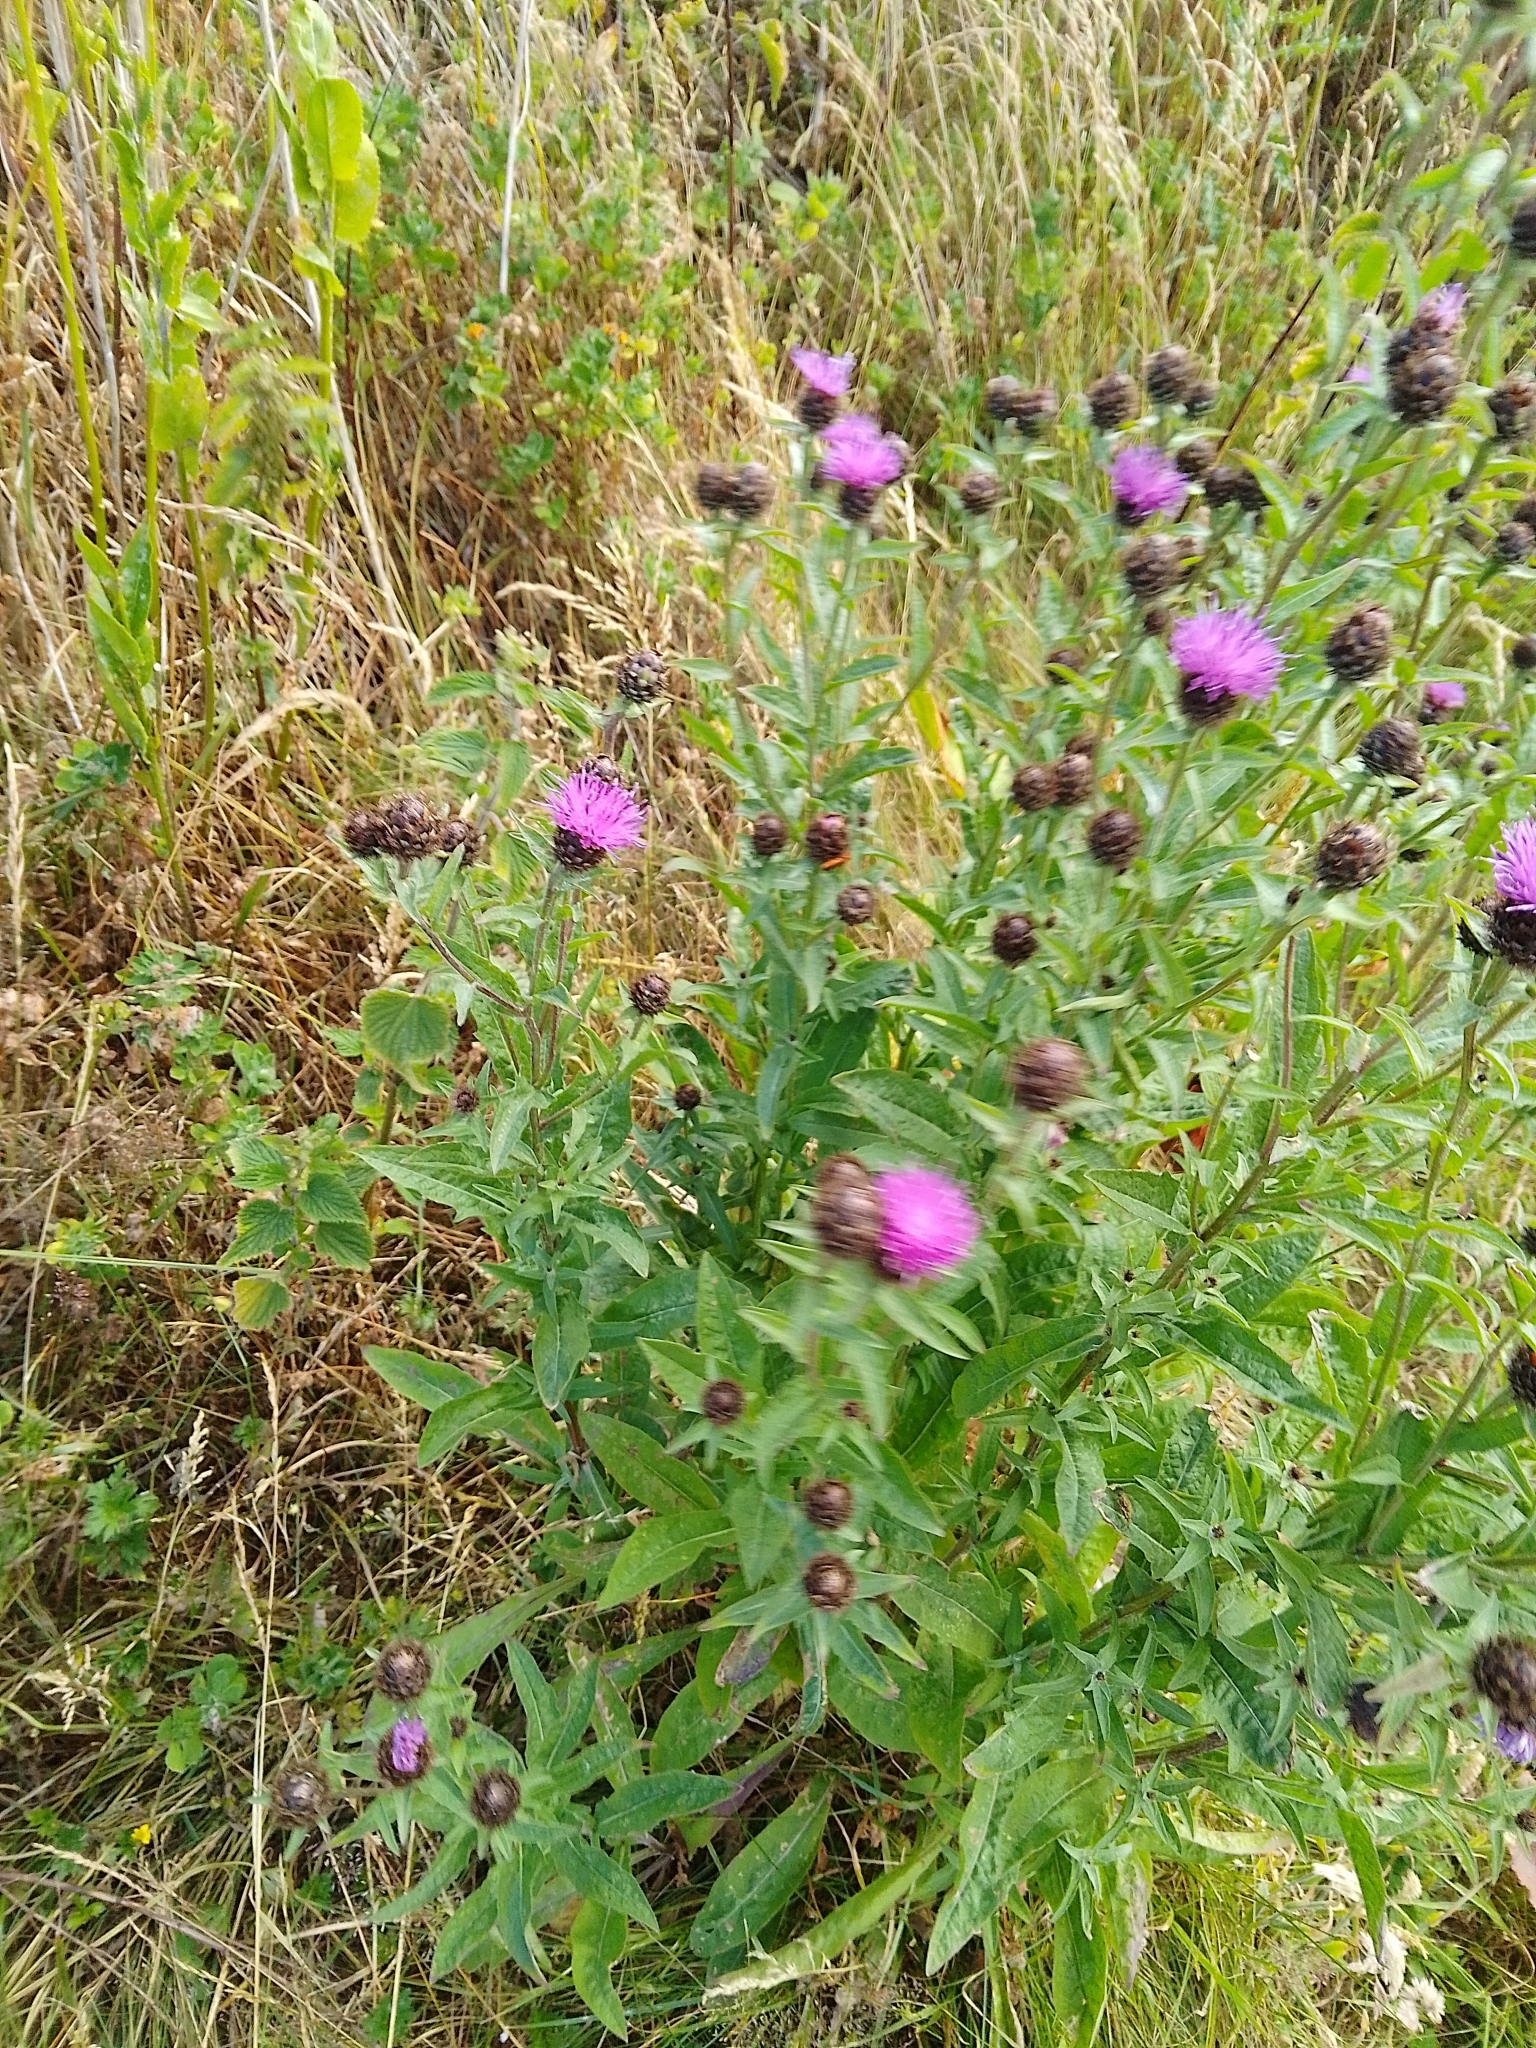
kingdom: Plantae
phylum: Tracheophyta
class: Magnoliopsida
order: Asterales
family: Asteraceae
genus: Centaurea
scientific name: Centaurea nigra
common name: Lesser knapweed
